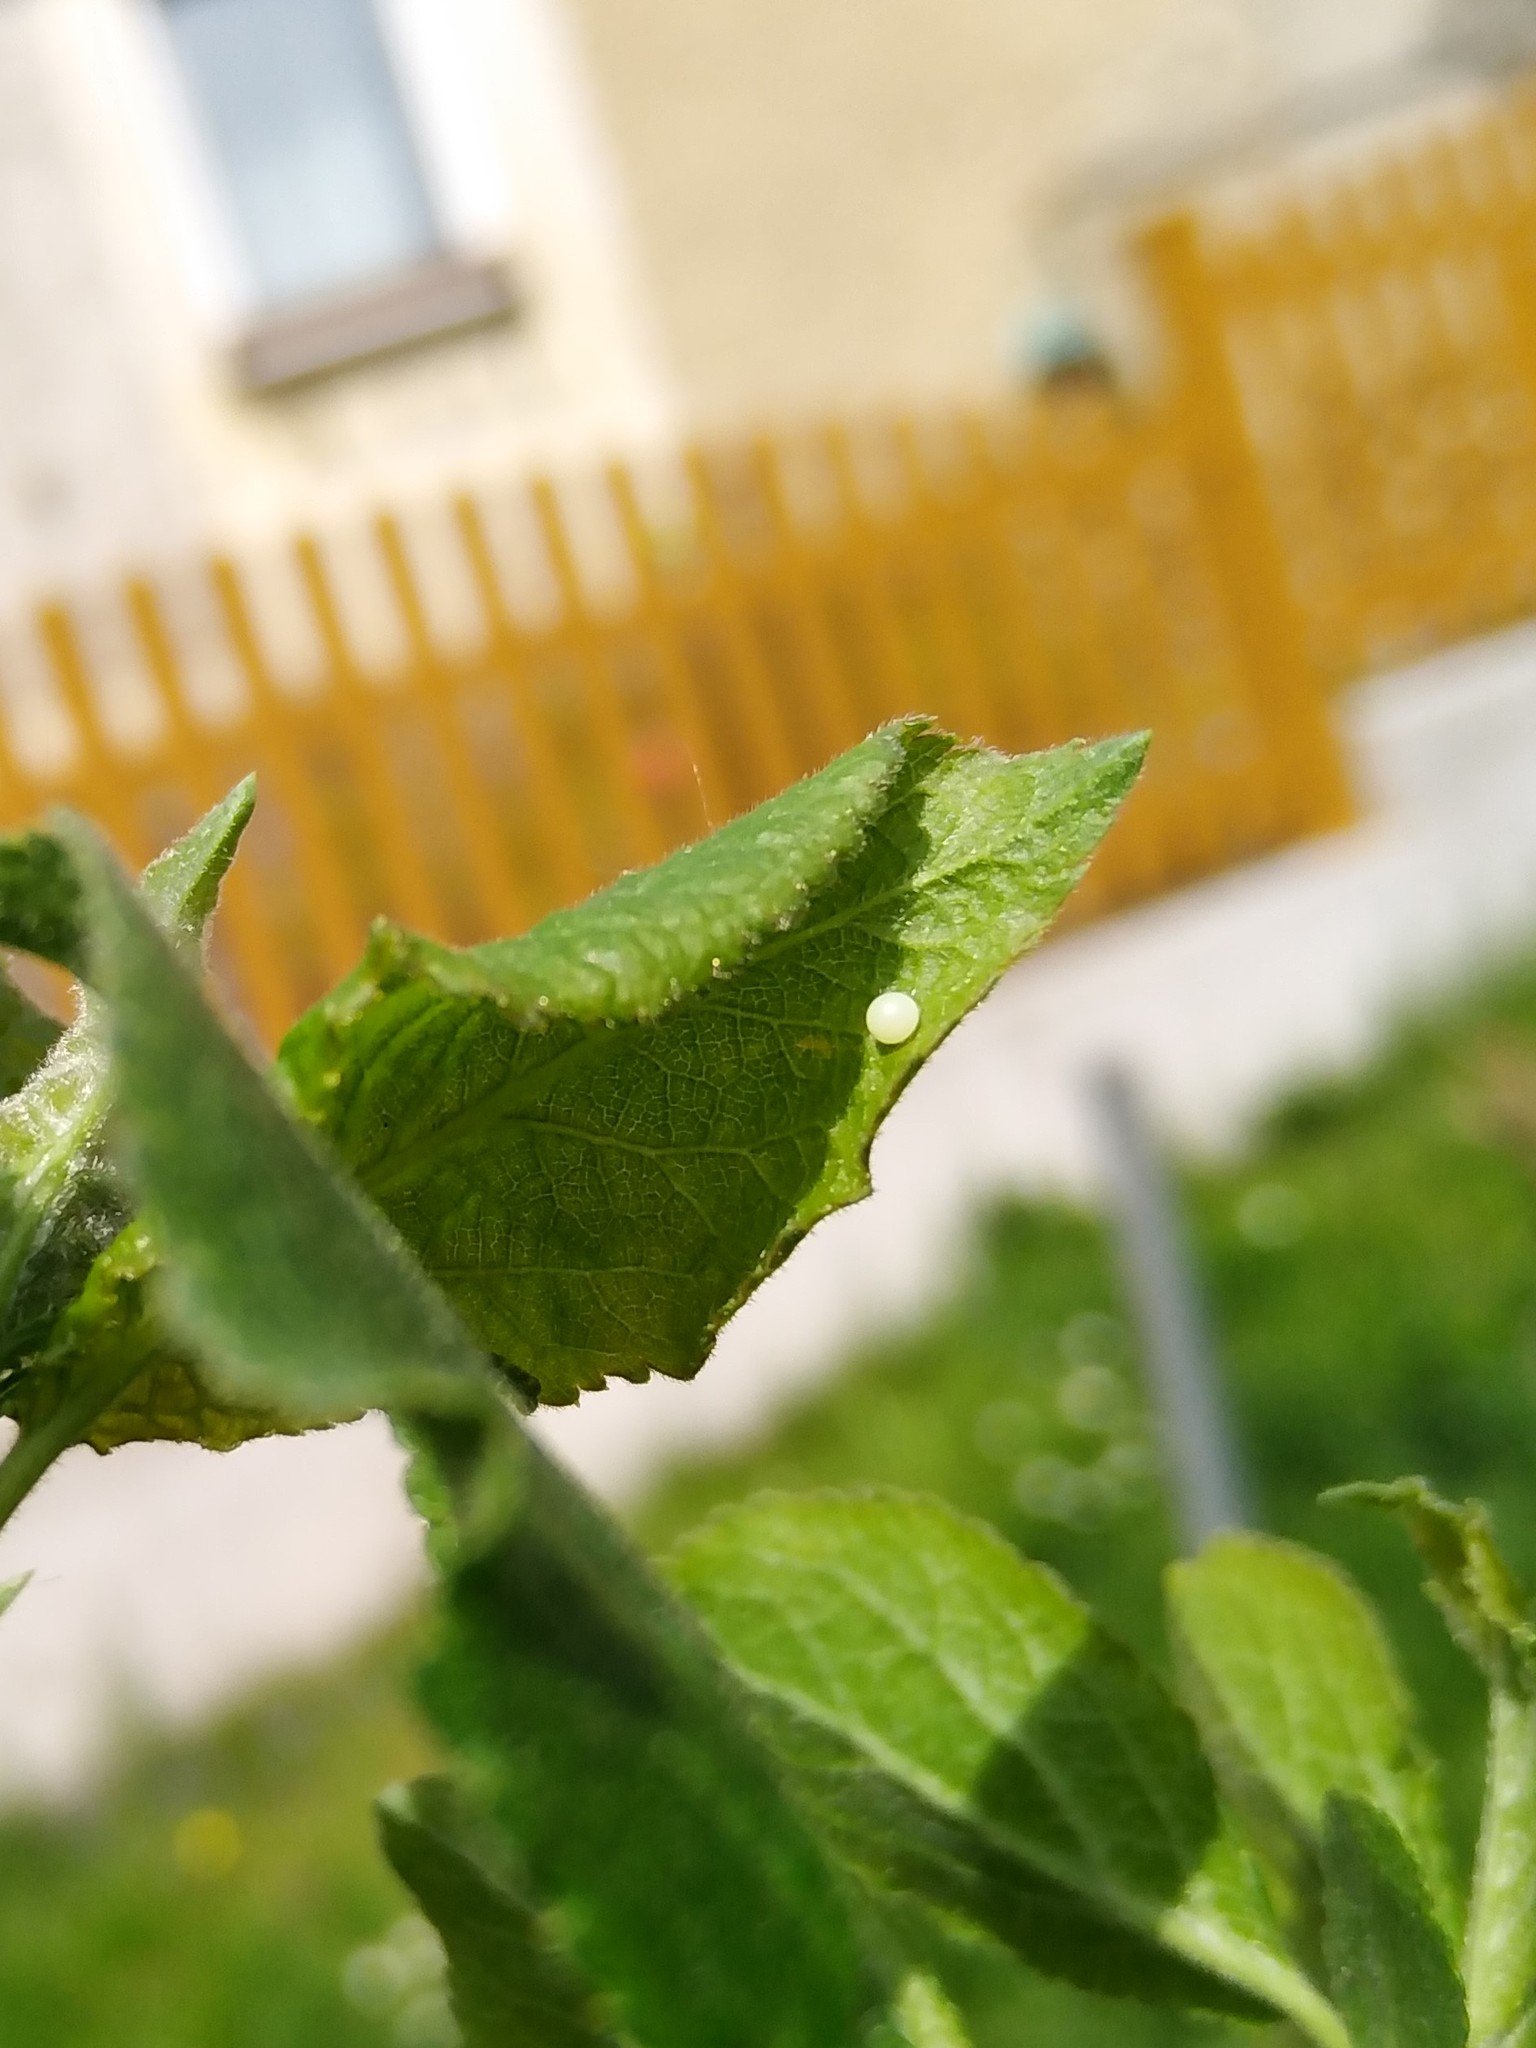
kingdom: Animalia
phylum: Arthropoda
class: Insecta
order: Lepidoptera
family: Papilionidae
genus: Iphiclides
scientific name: Iphiclides podalirius
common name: Scarce swallowtail
